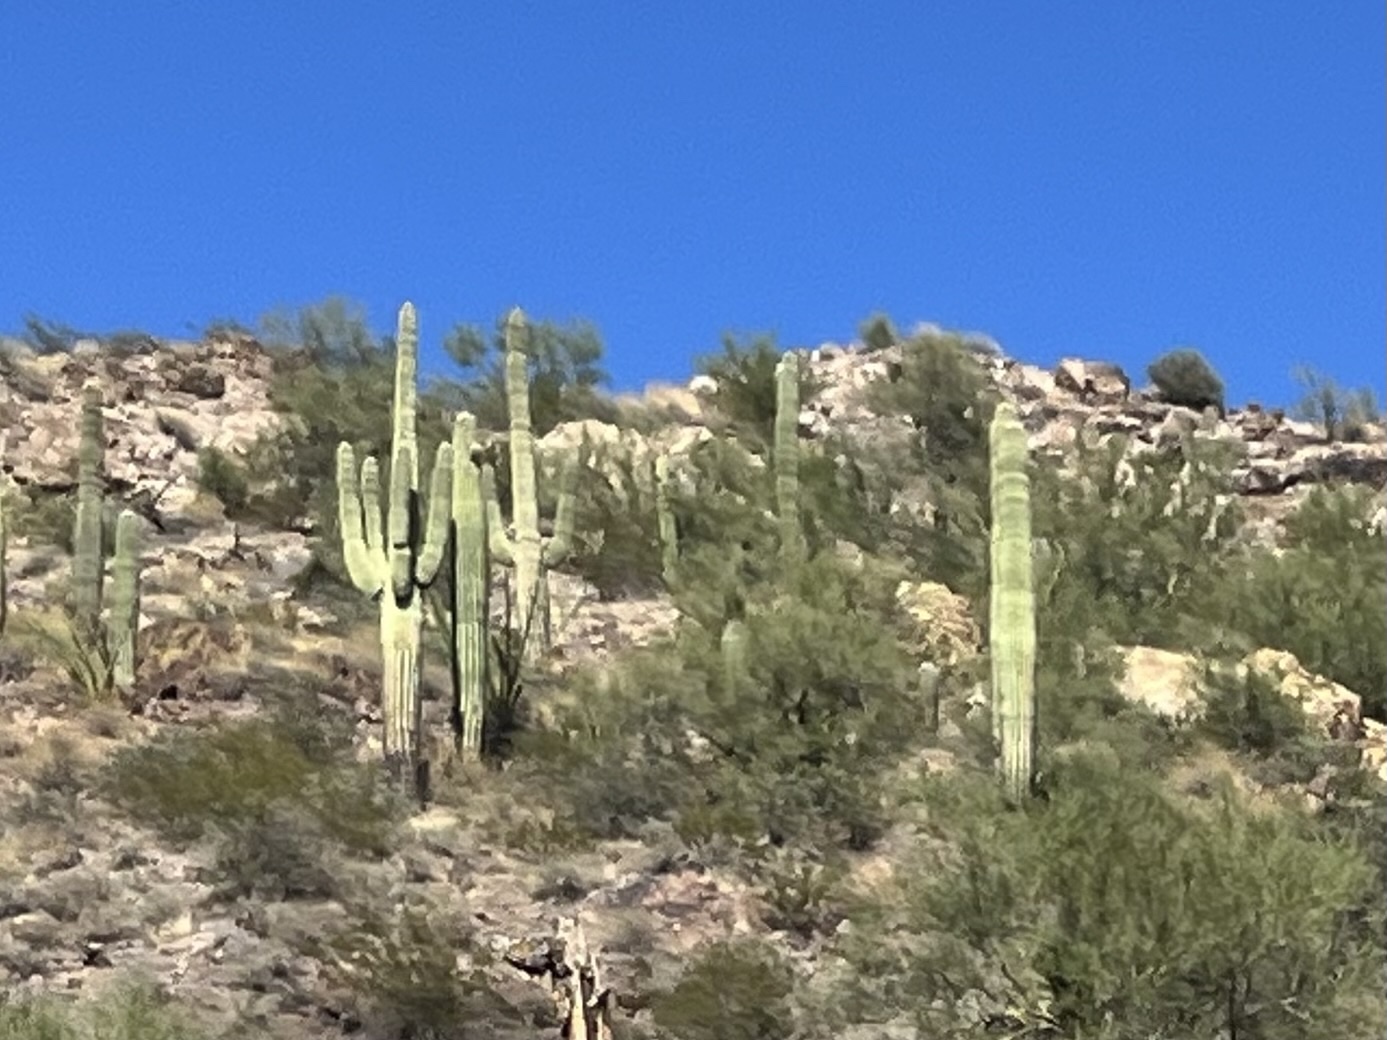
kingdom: Plantae
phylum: Tracheophyta
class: Magnoliopsida
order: Caryophyllales
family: Cactaceae
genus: Carnegiea
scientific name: Carnegiea gigantea
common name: Saguaro
